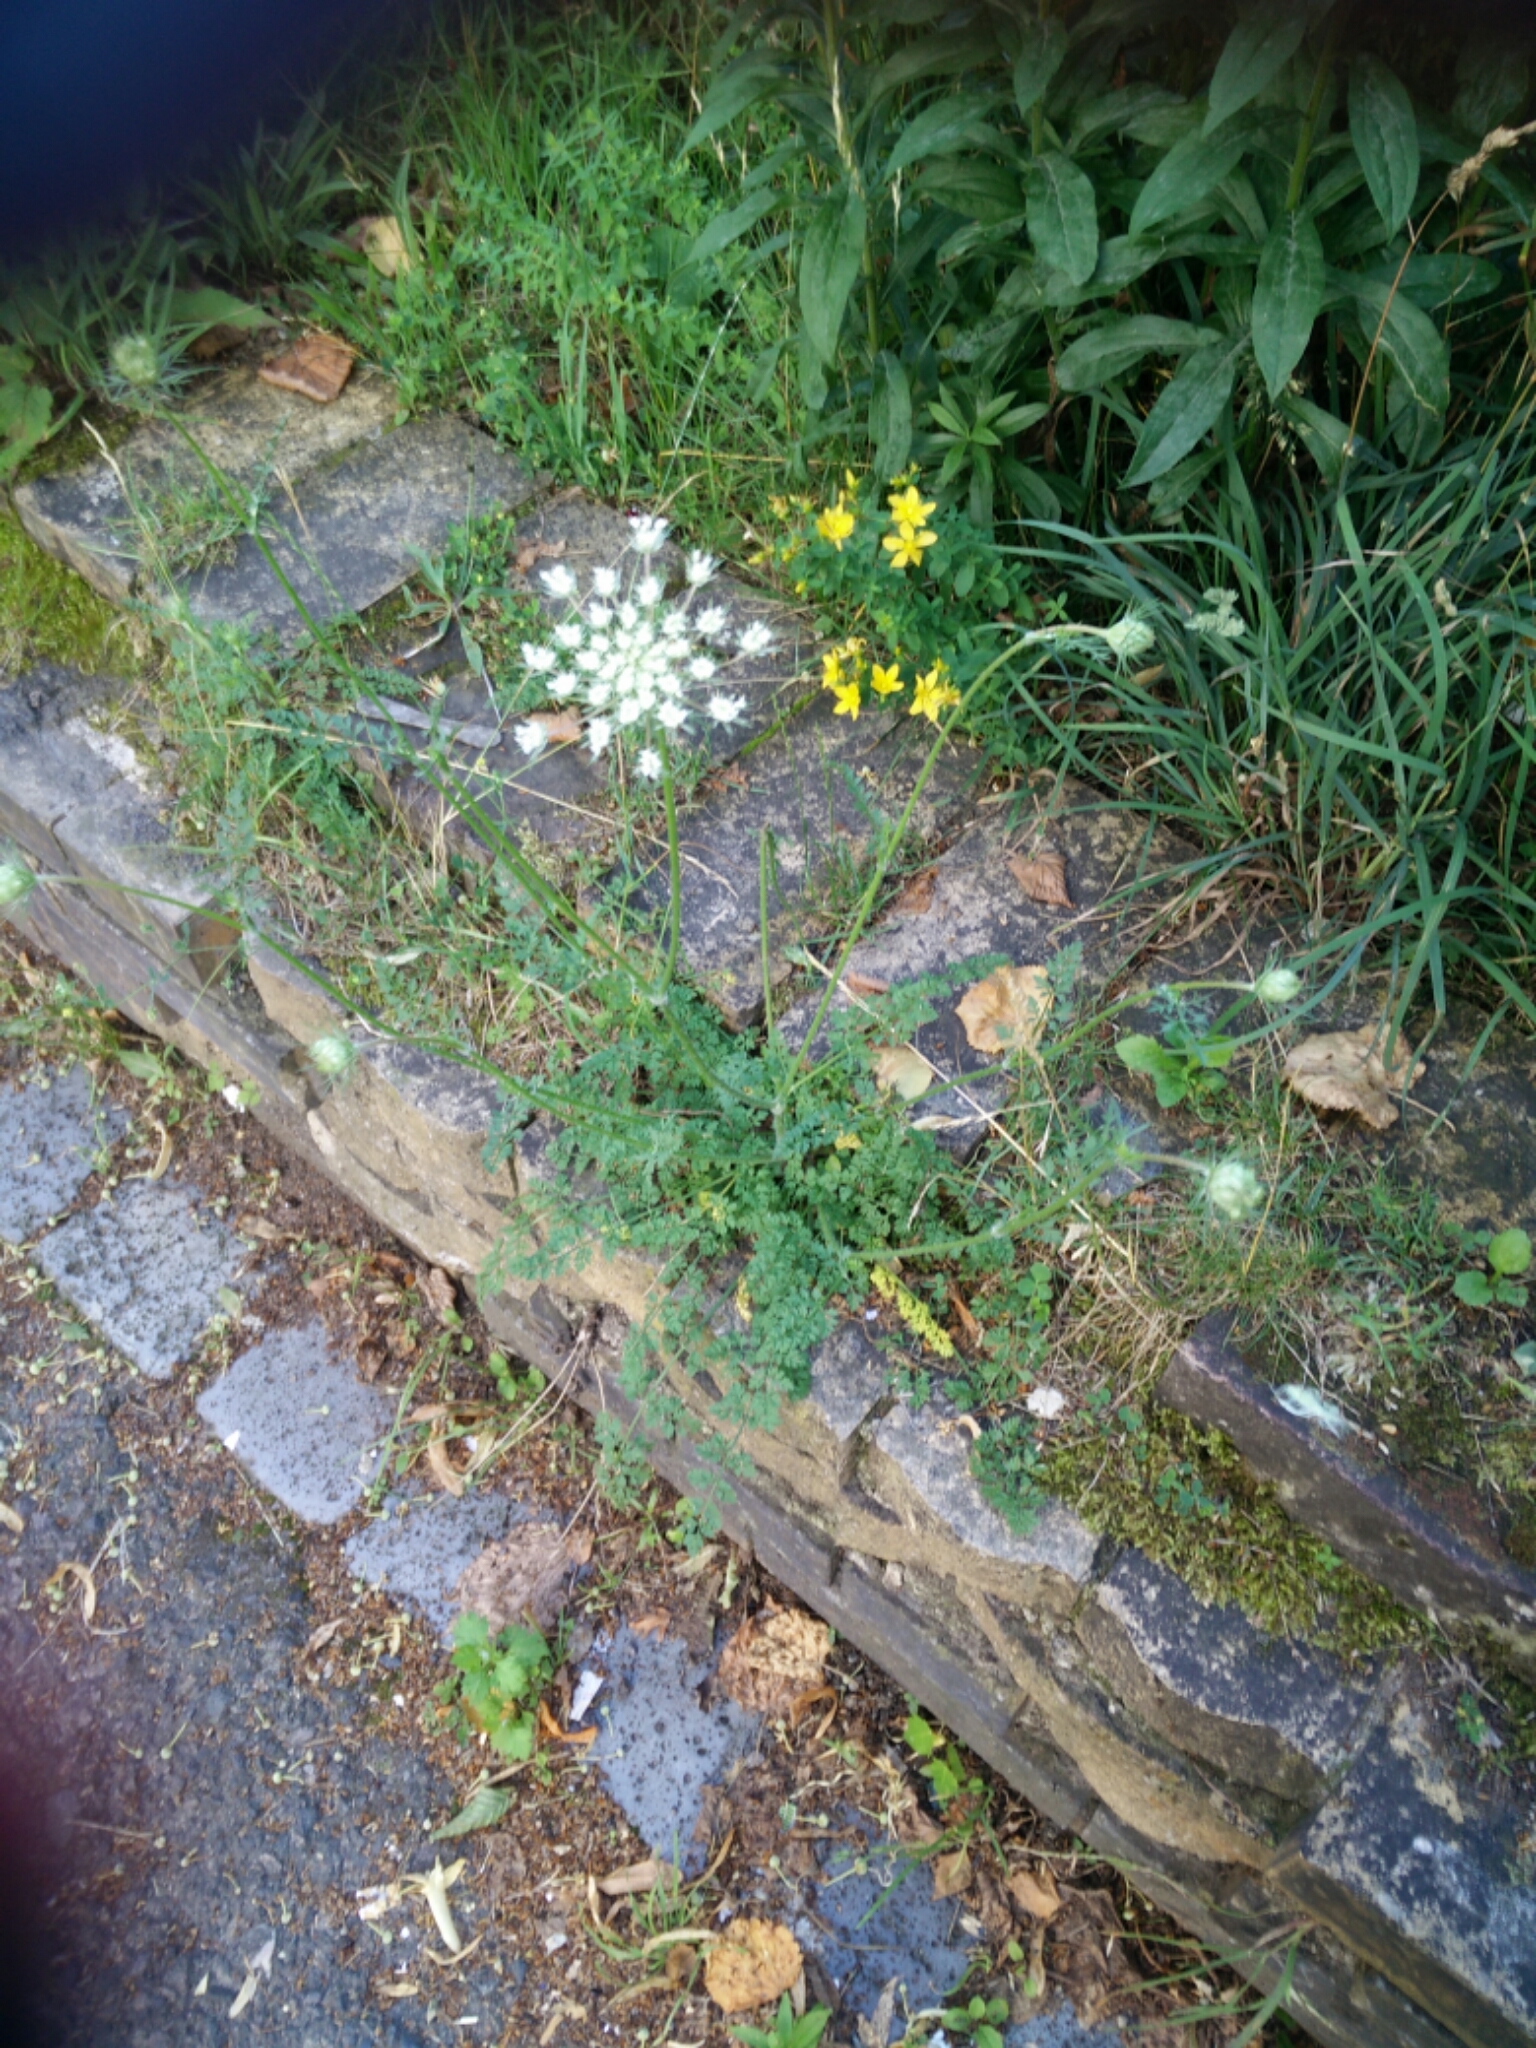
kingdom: Plantae
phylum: Tracheophyta
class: Magnoliopsida
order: Apiales
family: Apiaceae
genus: Daucus
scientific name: Daucus carota
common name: Wild carrot
